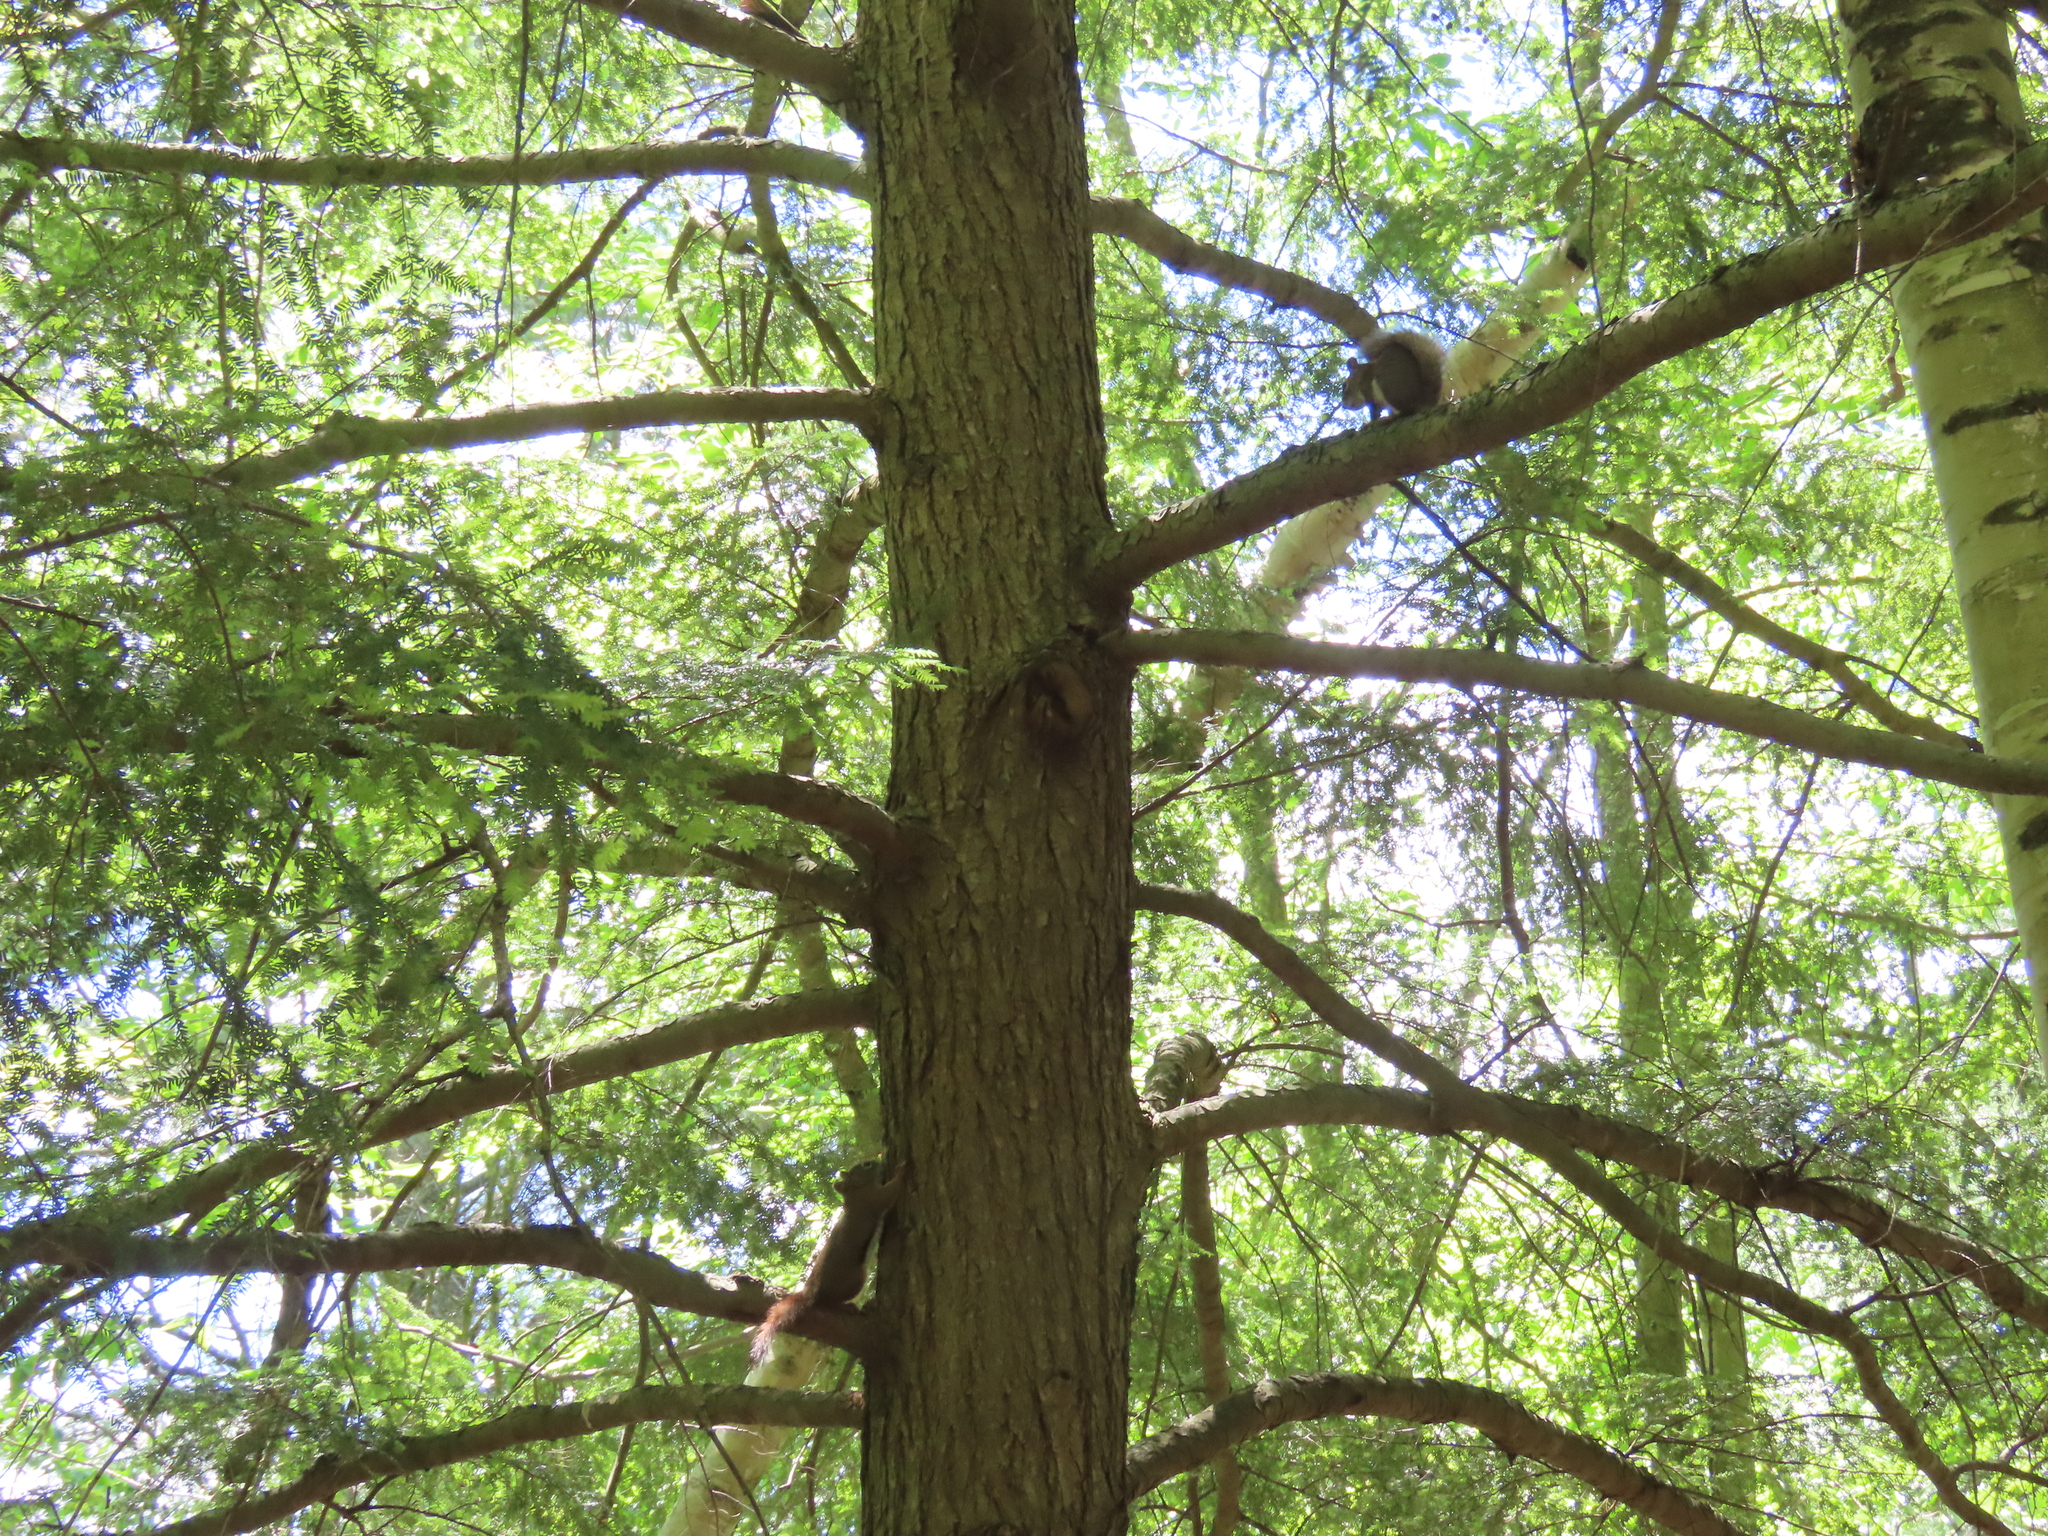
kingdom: Animalia
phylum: Chordata
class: Mammalia
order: Rodentia
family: Sciuridae
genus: Tamiasciurus
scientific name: Tamiasciurus hudsonicus
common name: Red squirrel
